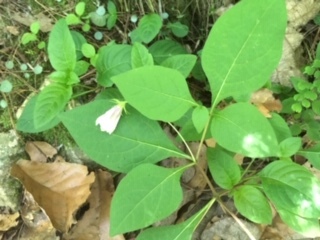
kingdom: Plantae
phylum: Tracheophyta
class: Magnoliopsida
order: Solanales
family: Solanaceae
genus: Lycianthes
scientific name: Lycianthes ciliolata
